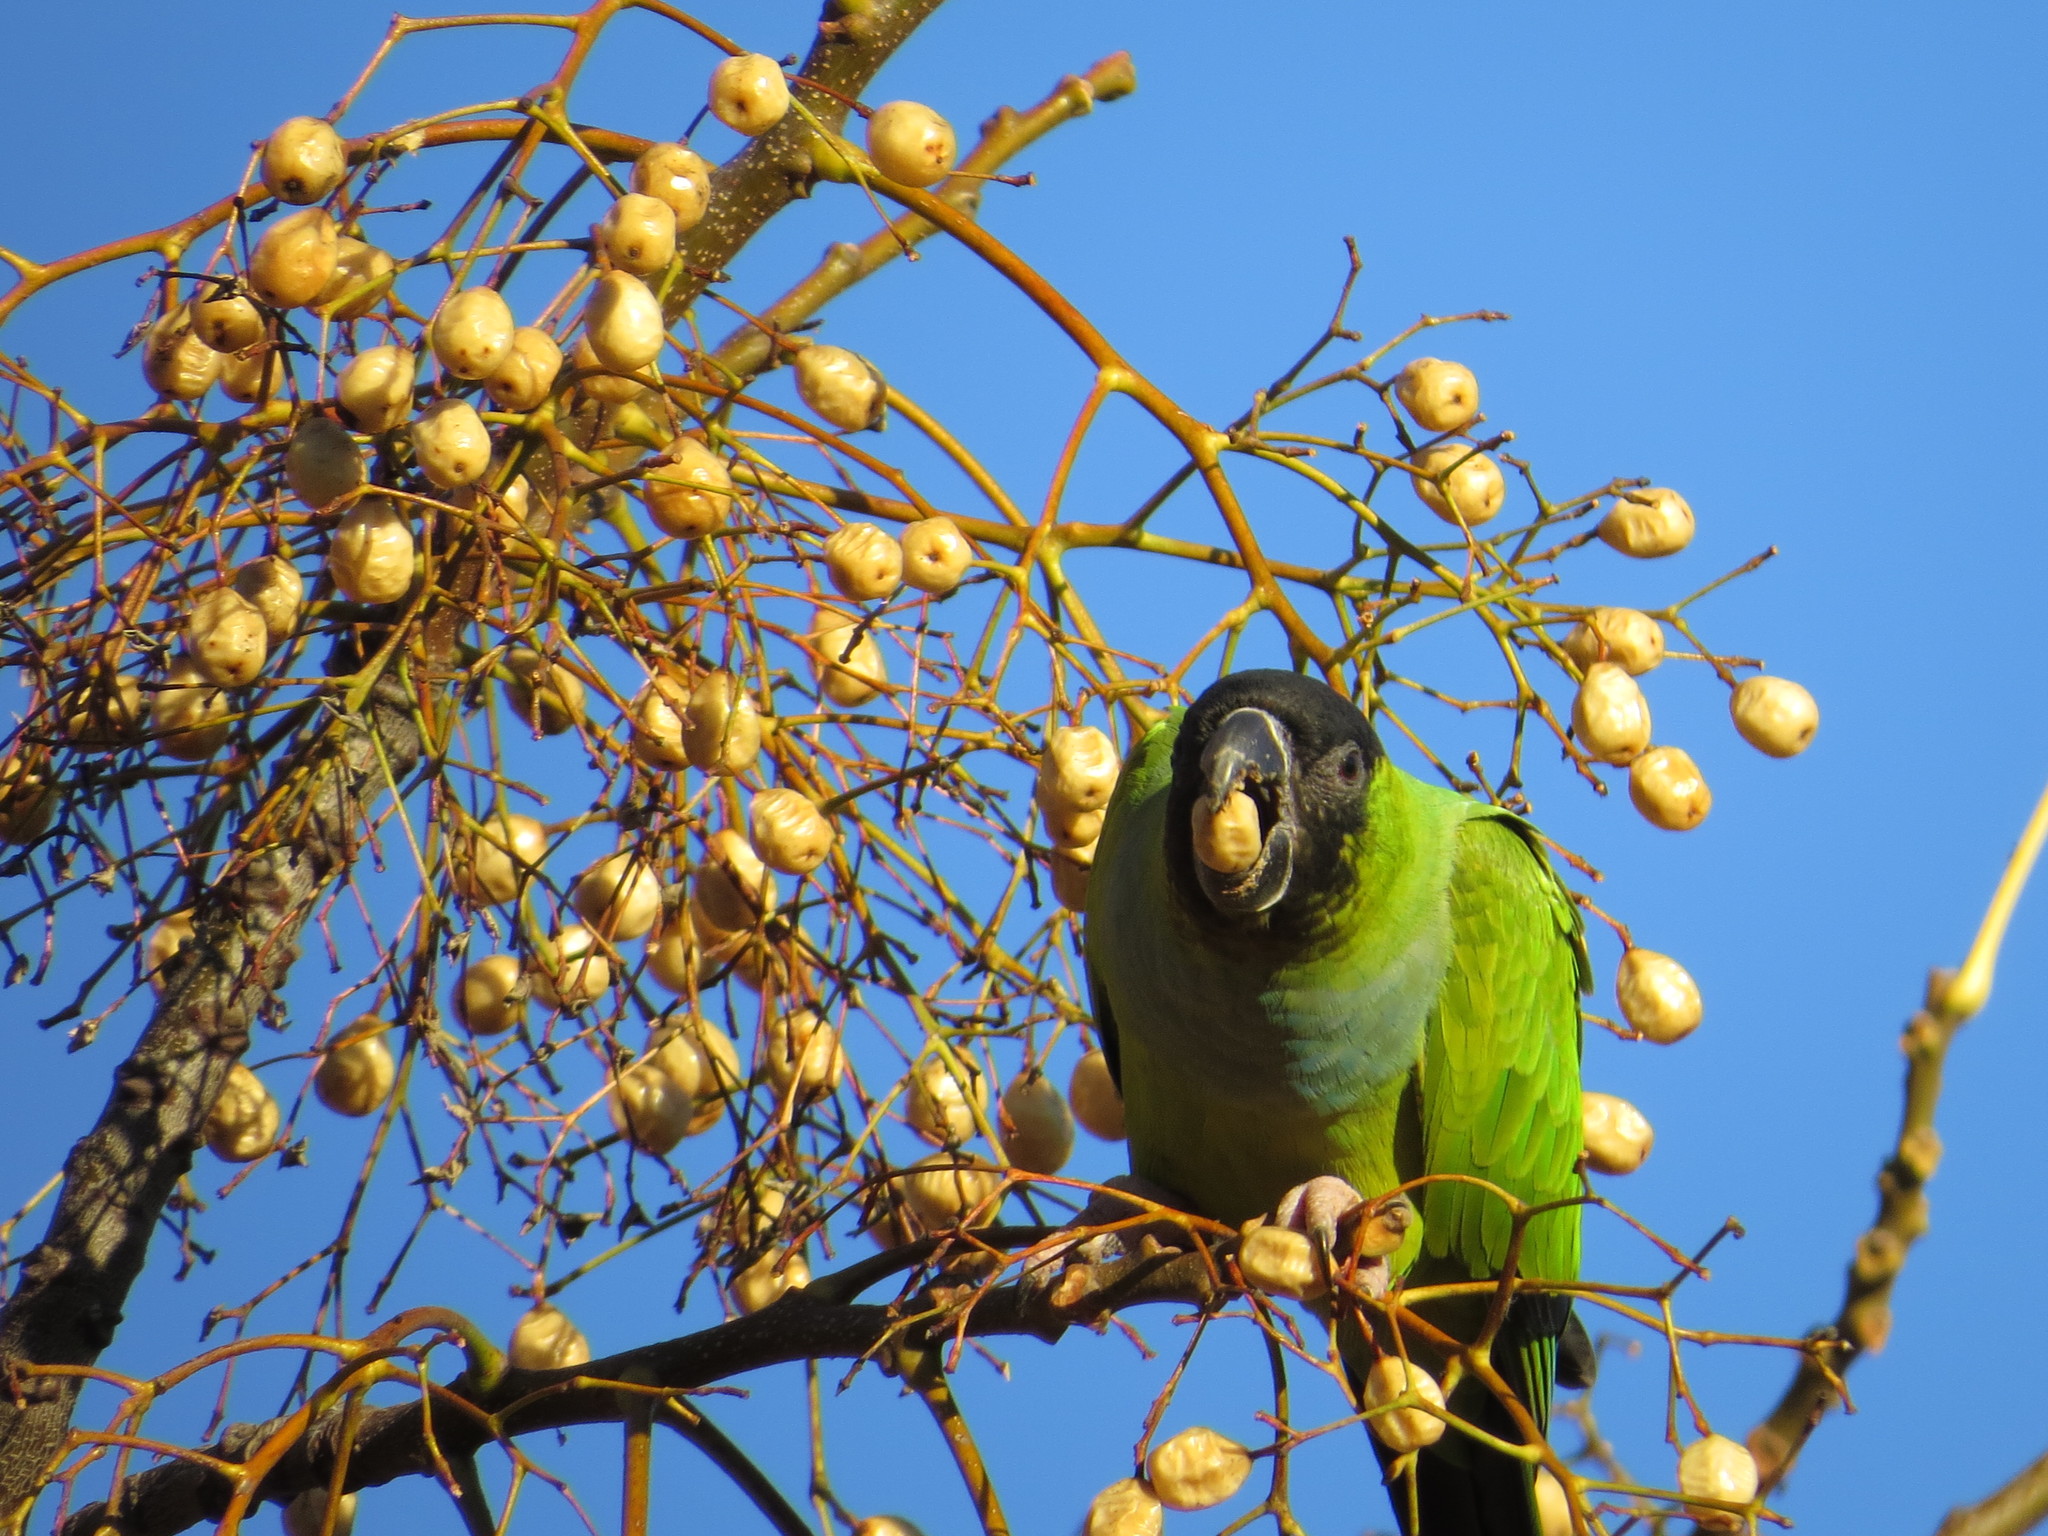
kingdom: Animalia
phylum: Chordata
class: Aves
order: Psittaciformes
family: Psittacidae
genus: Nandayus
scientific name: Nandayus nenday
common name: Nanday parakeet
